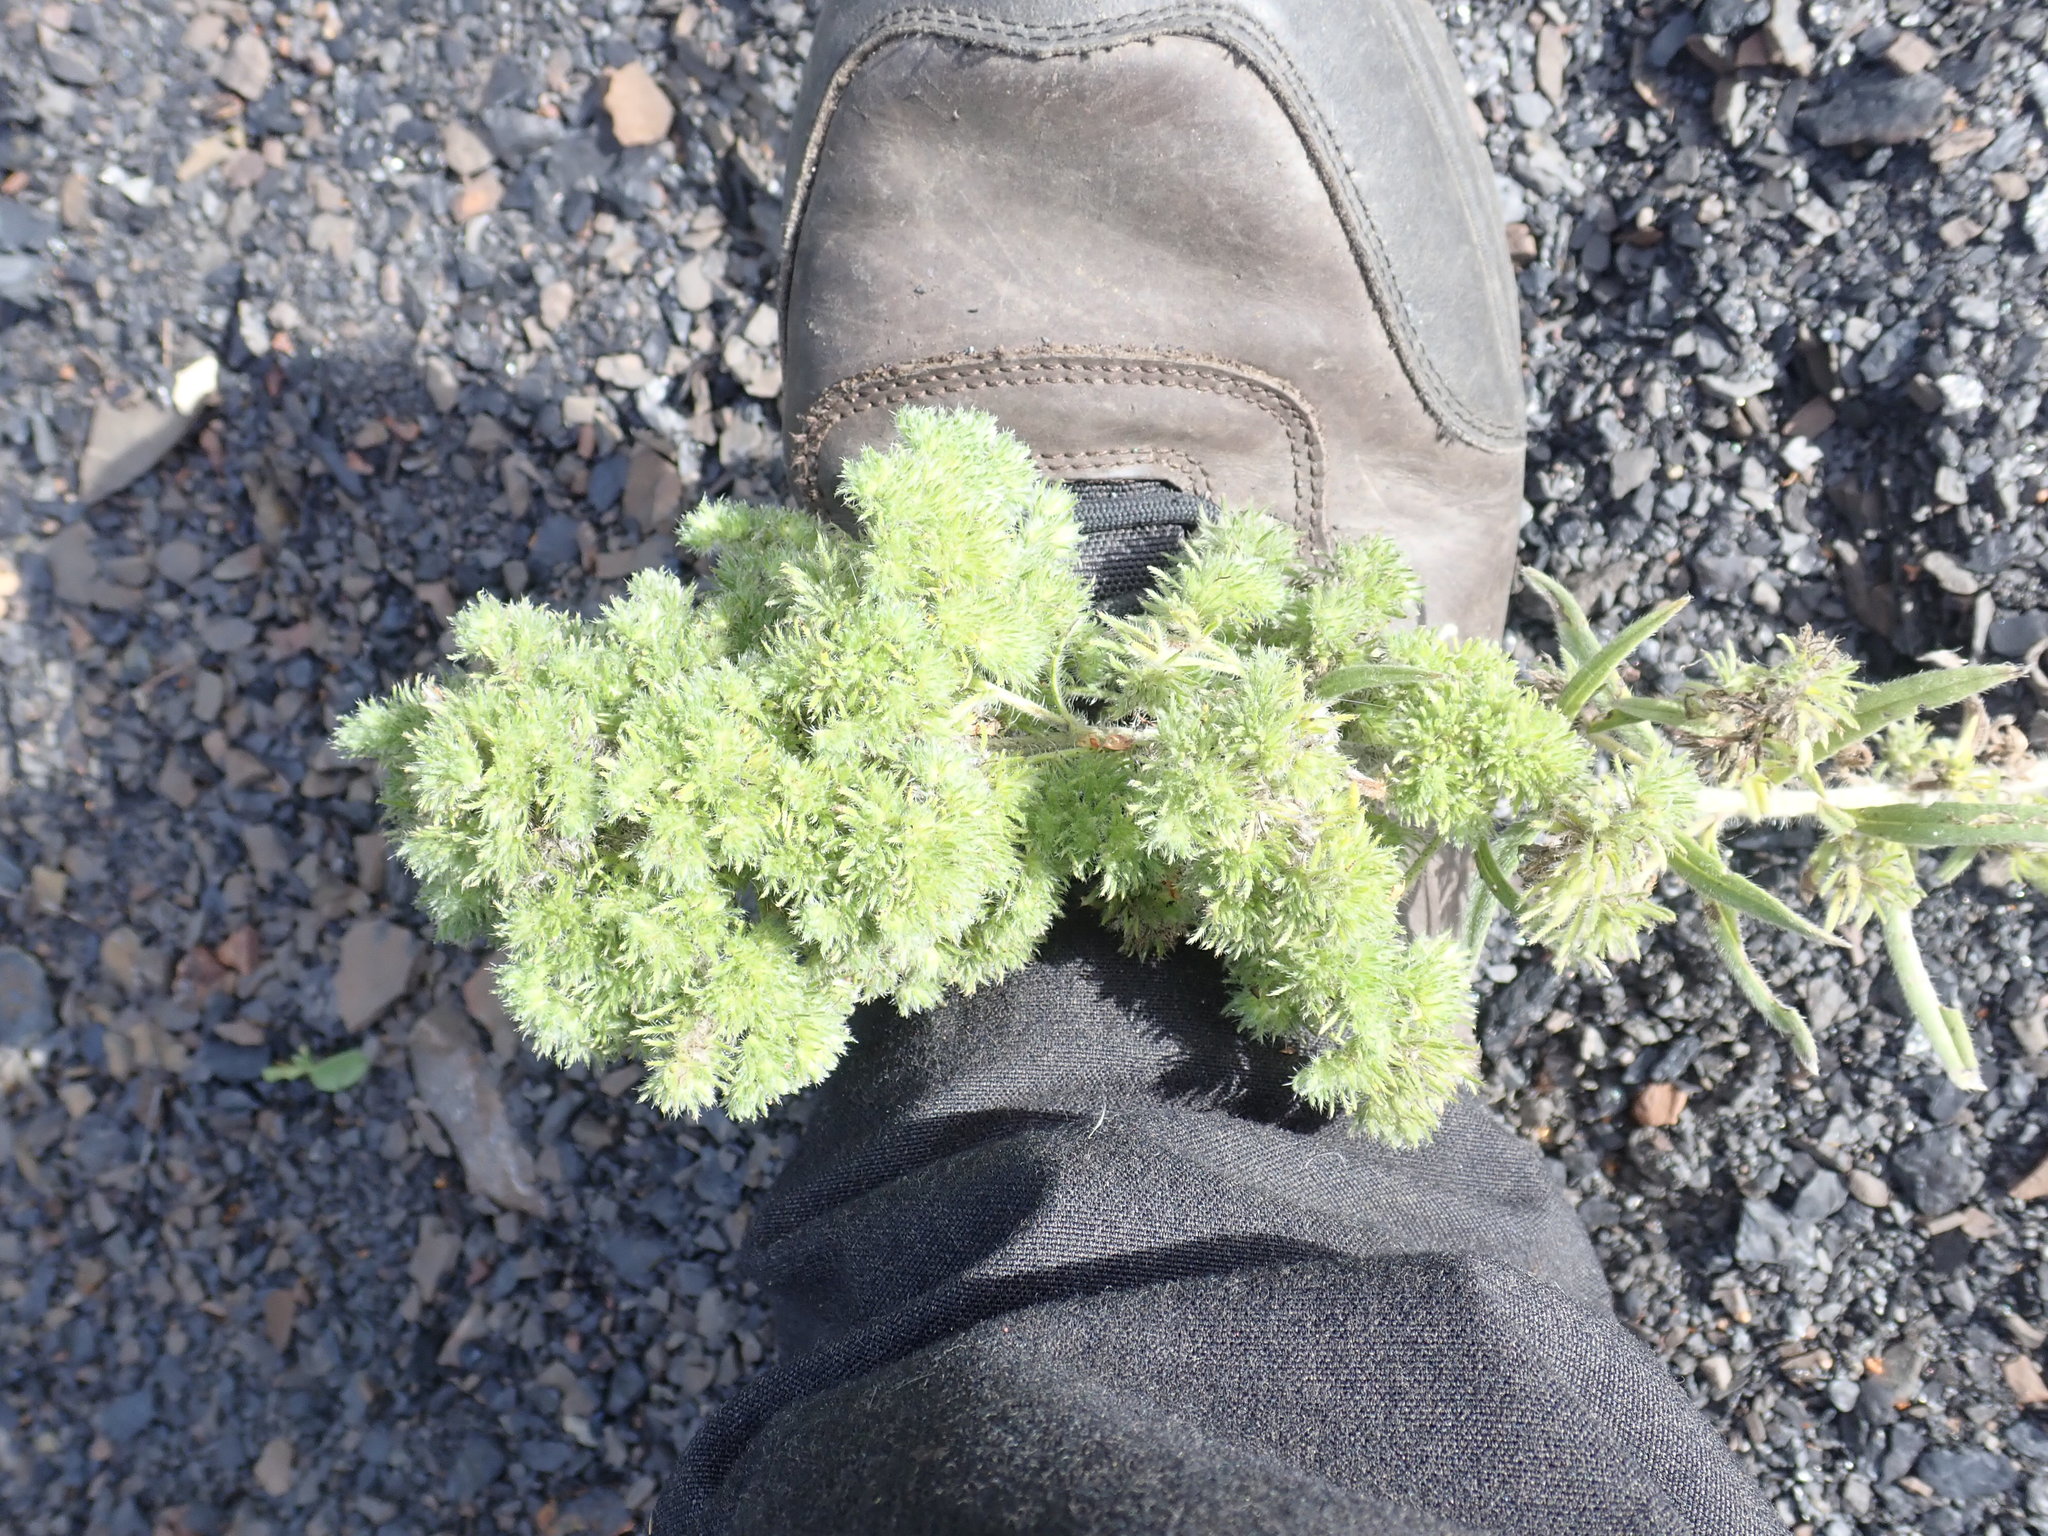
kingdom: Animalia
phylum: Arthropoda
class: Arachnida
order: Trombidiformes
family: Eriophyidae
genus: Aceria
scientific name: Aceria echii
